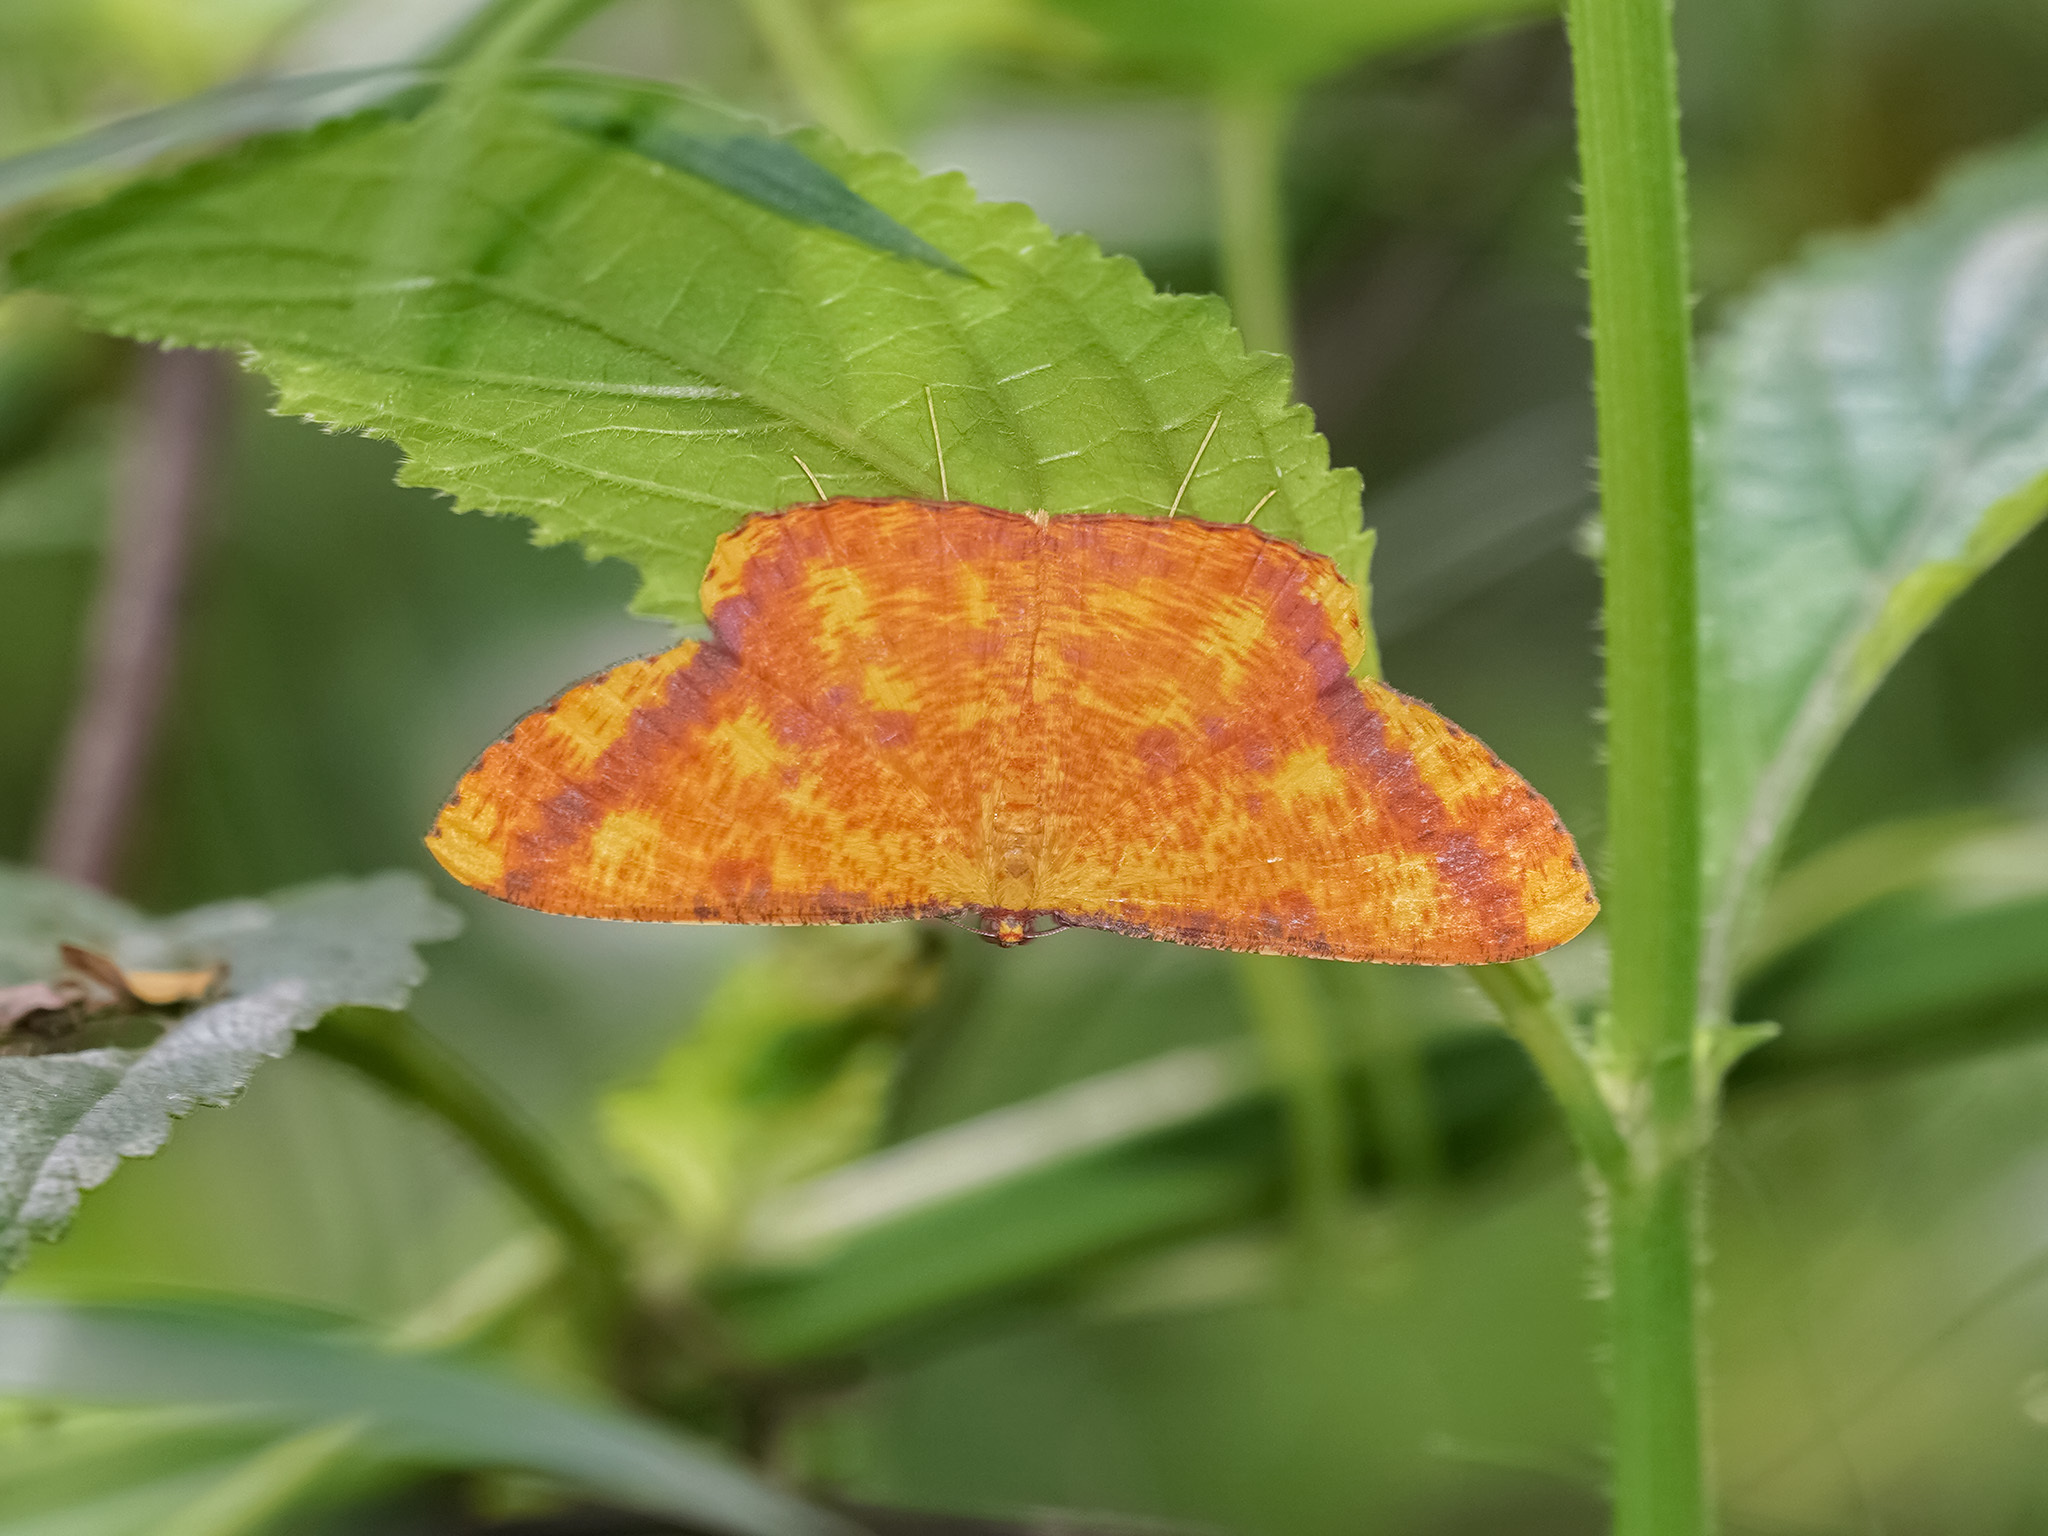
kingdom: Animalia
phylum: Arthropoda
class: Insecta
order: Lepidoptera
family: Geometridae
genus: Eumelea
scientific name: Eumelea ludovicata
